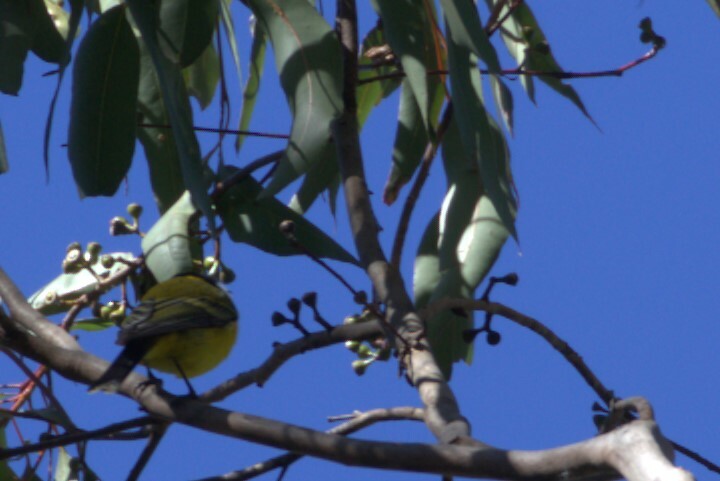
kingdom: Animalia
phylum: Chordata
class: Aves
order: Passeriformes
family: Pachycephalidae
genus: Pachycephala
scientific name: Pachycephala pectoralis
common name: Australian golden whistler
